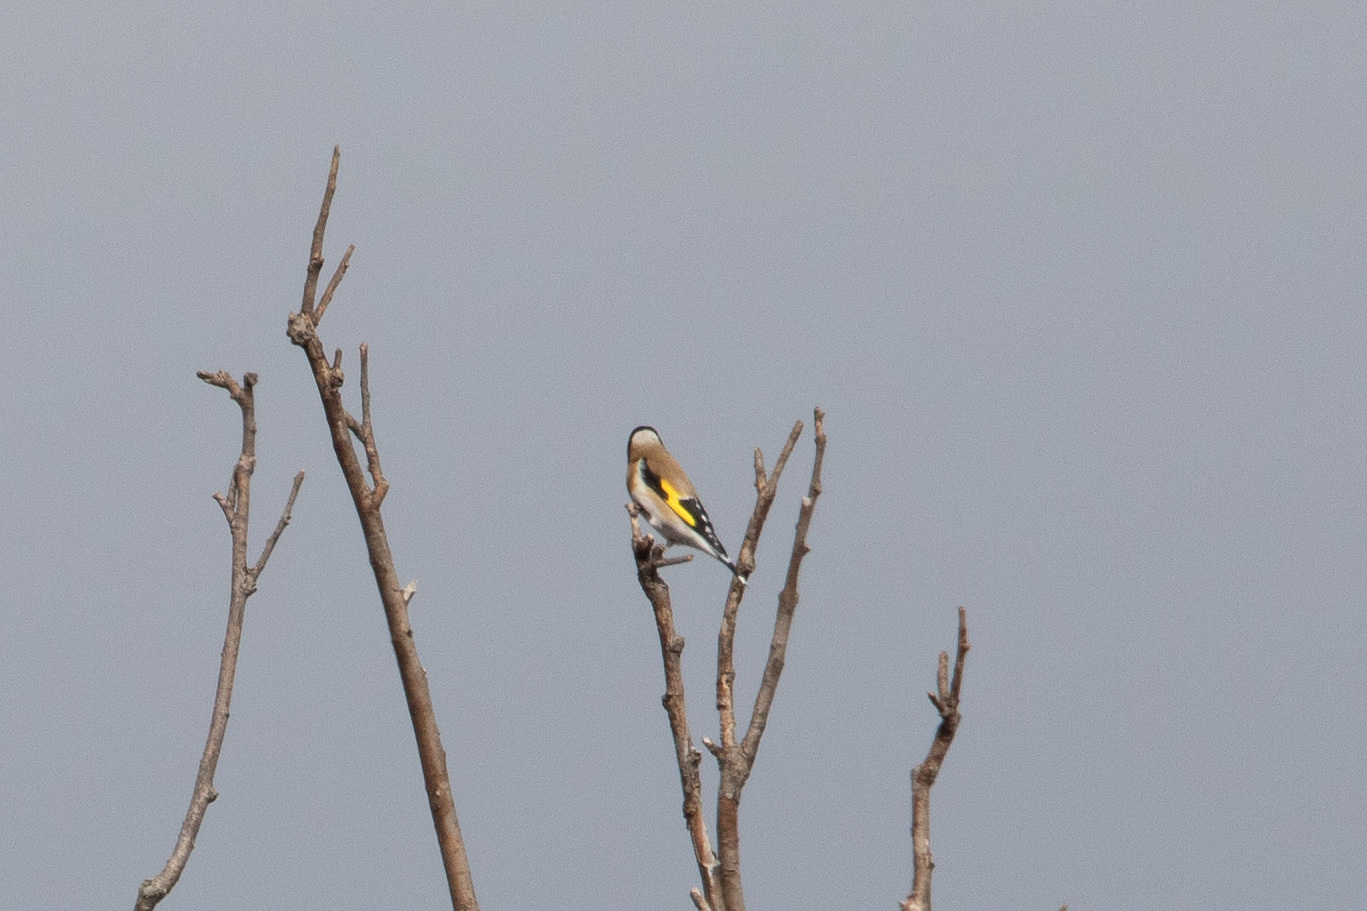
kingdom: Animalia
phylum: Chordata
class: Aves
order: Passeriformes
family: Fringillidae
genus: Carduelis
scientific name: Carduelis carduelis
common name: European goldfinch
